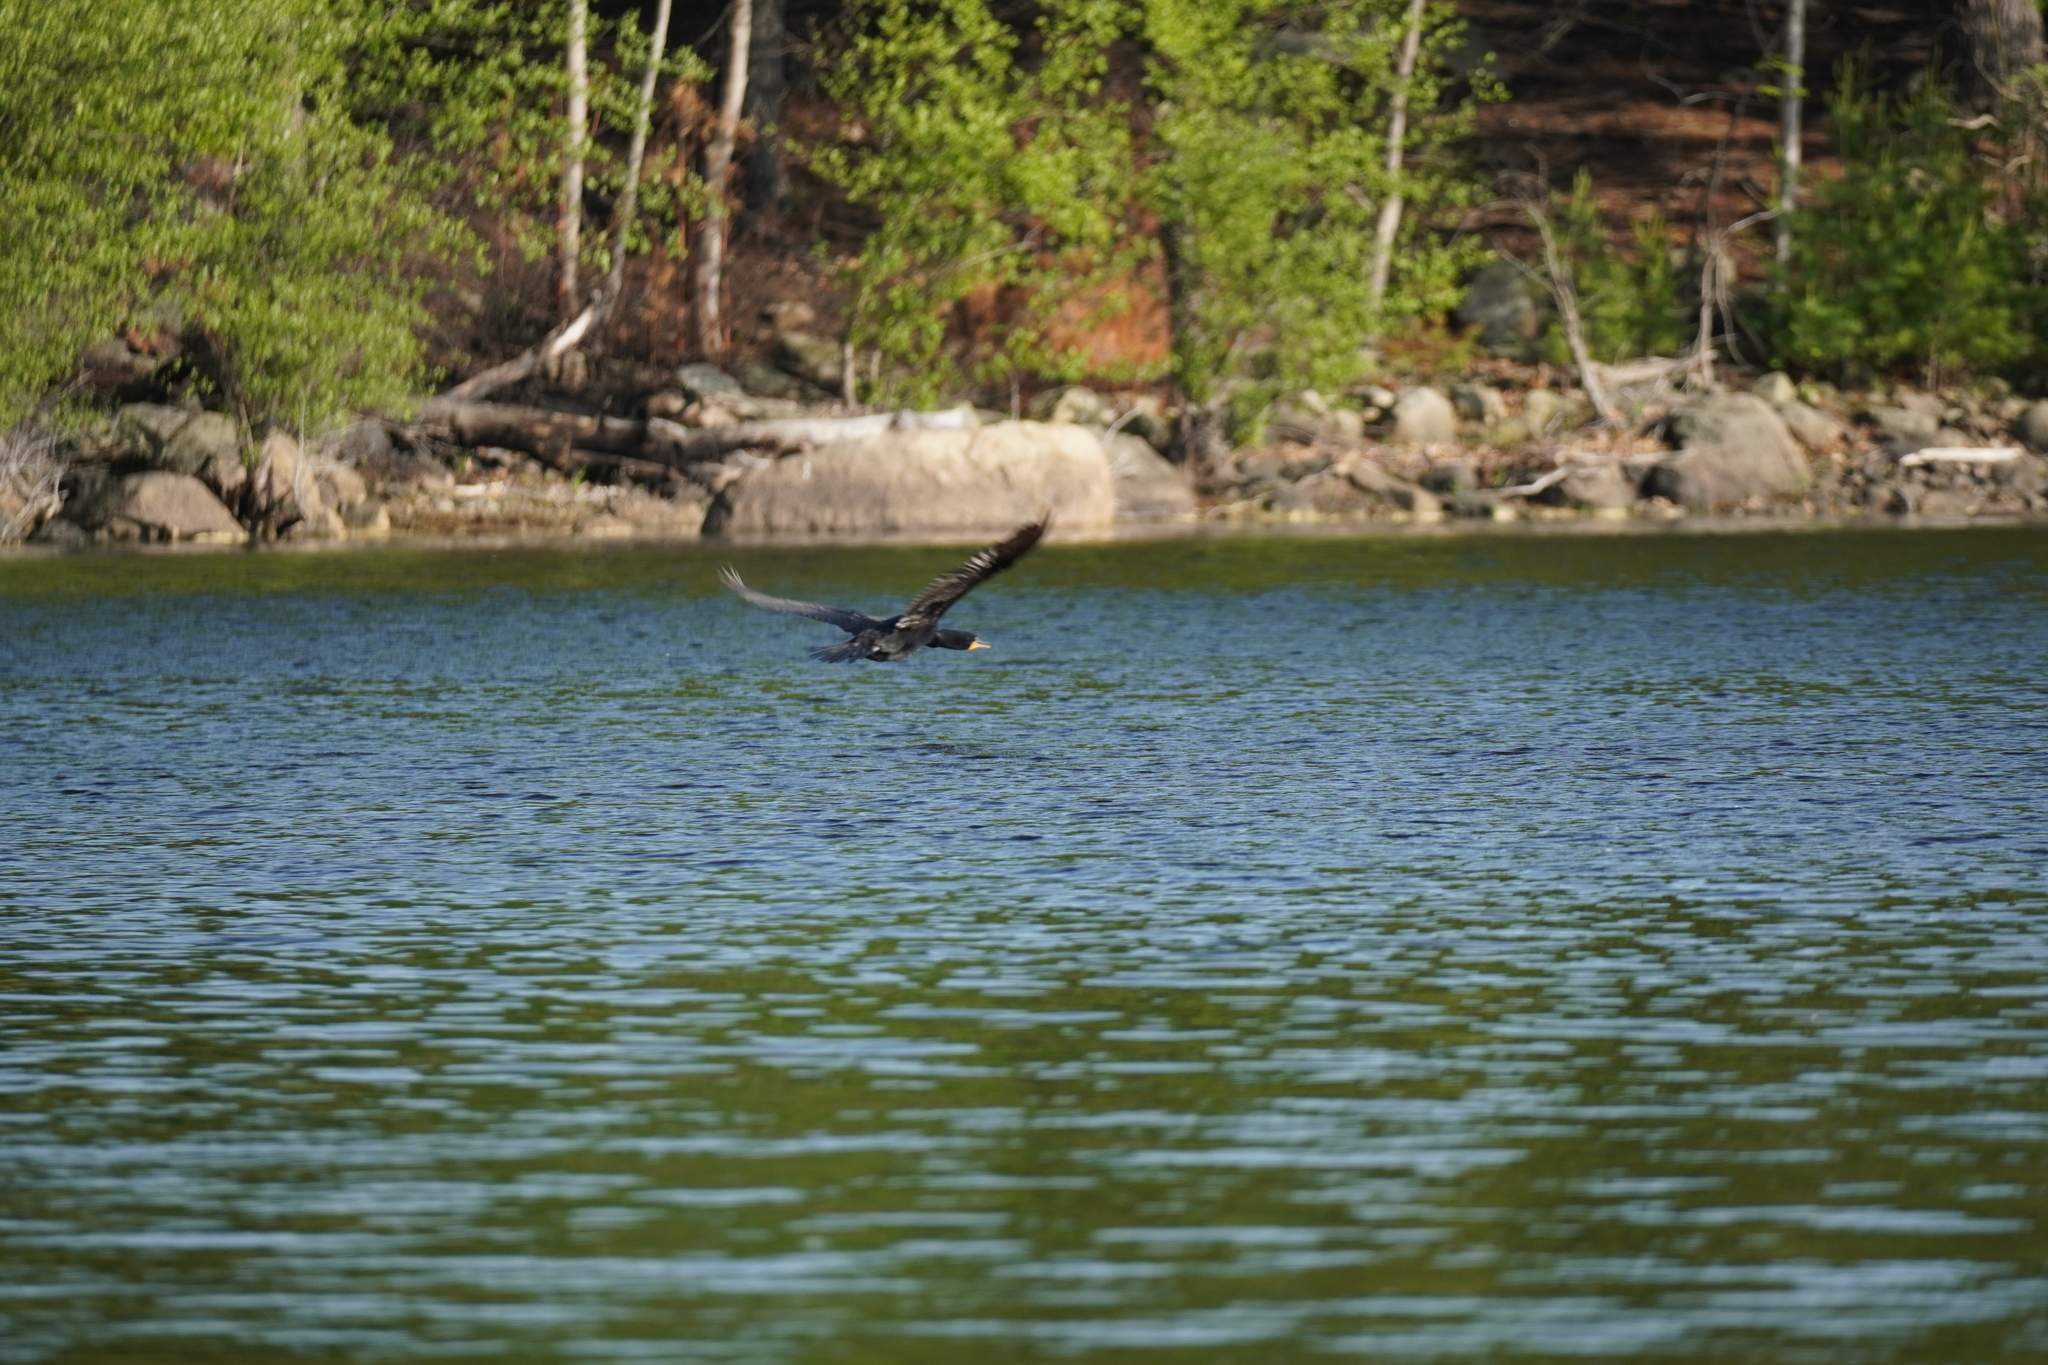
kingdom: Animalia
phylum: Chordata
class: Aves
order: Suliformes
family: Phalacrocoracidae
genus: Phalacrocorax
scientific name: Phalacrocorax auritus
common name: Double-crested cormorant
